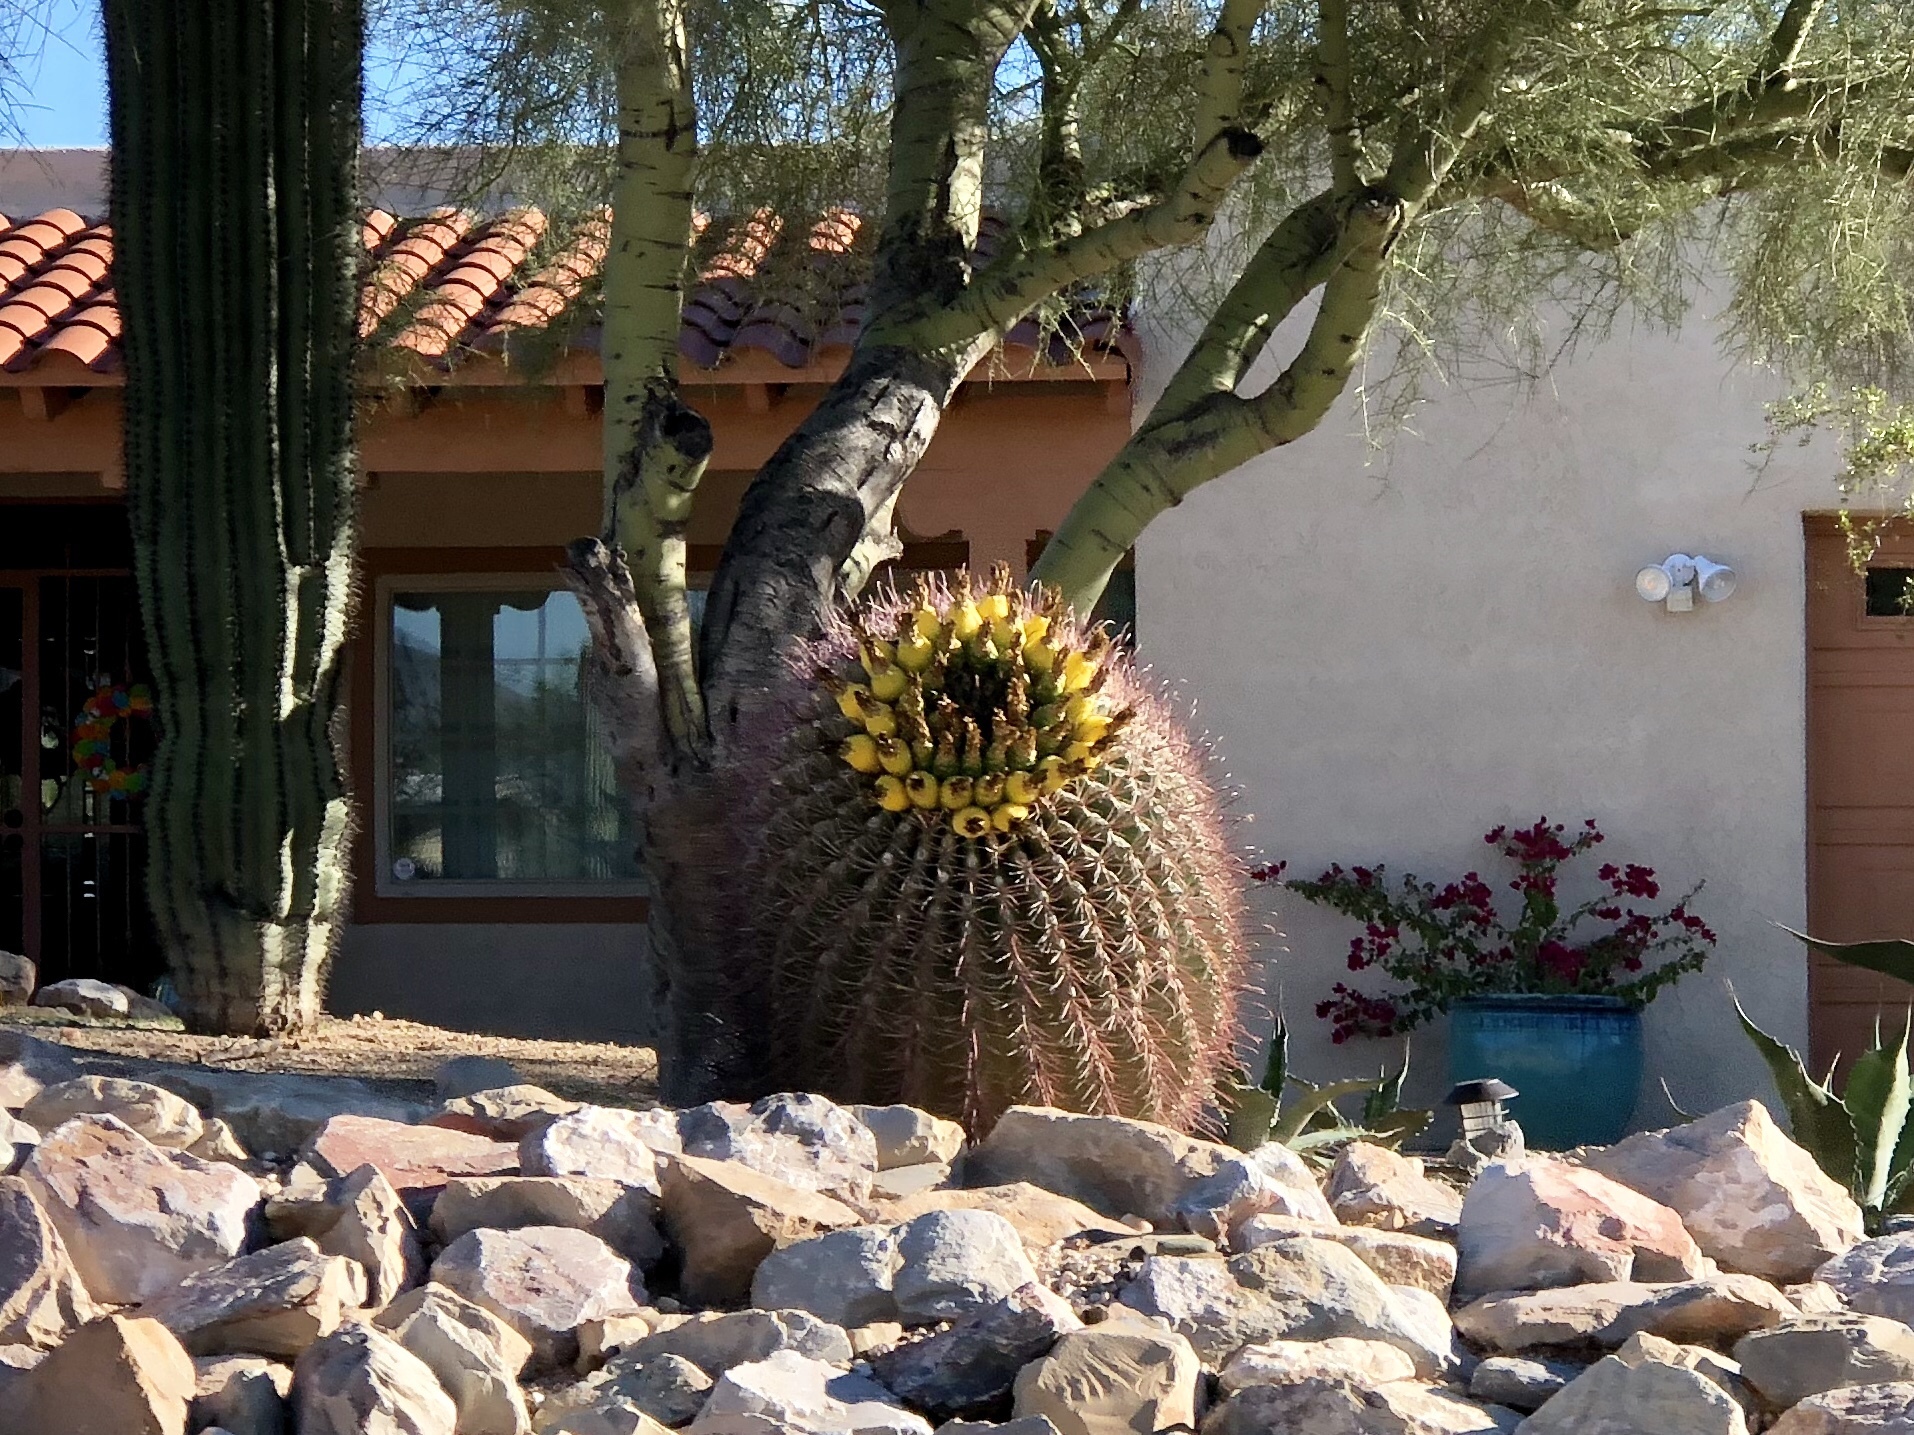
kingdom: Plantae
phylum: Tracheophyta
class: Magnoliopsida
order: Caryophyllales
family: Cactaceae
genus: Ferocactus
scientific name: Ferocactus wislizeni
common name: Candy barrel cactus
